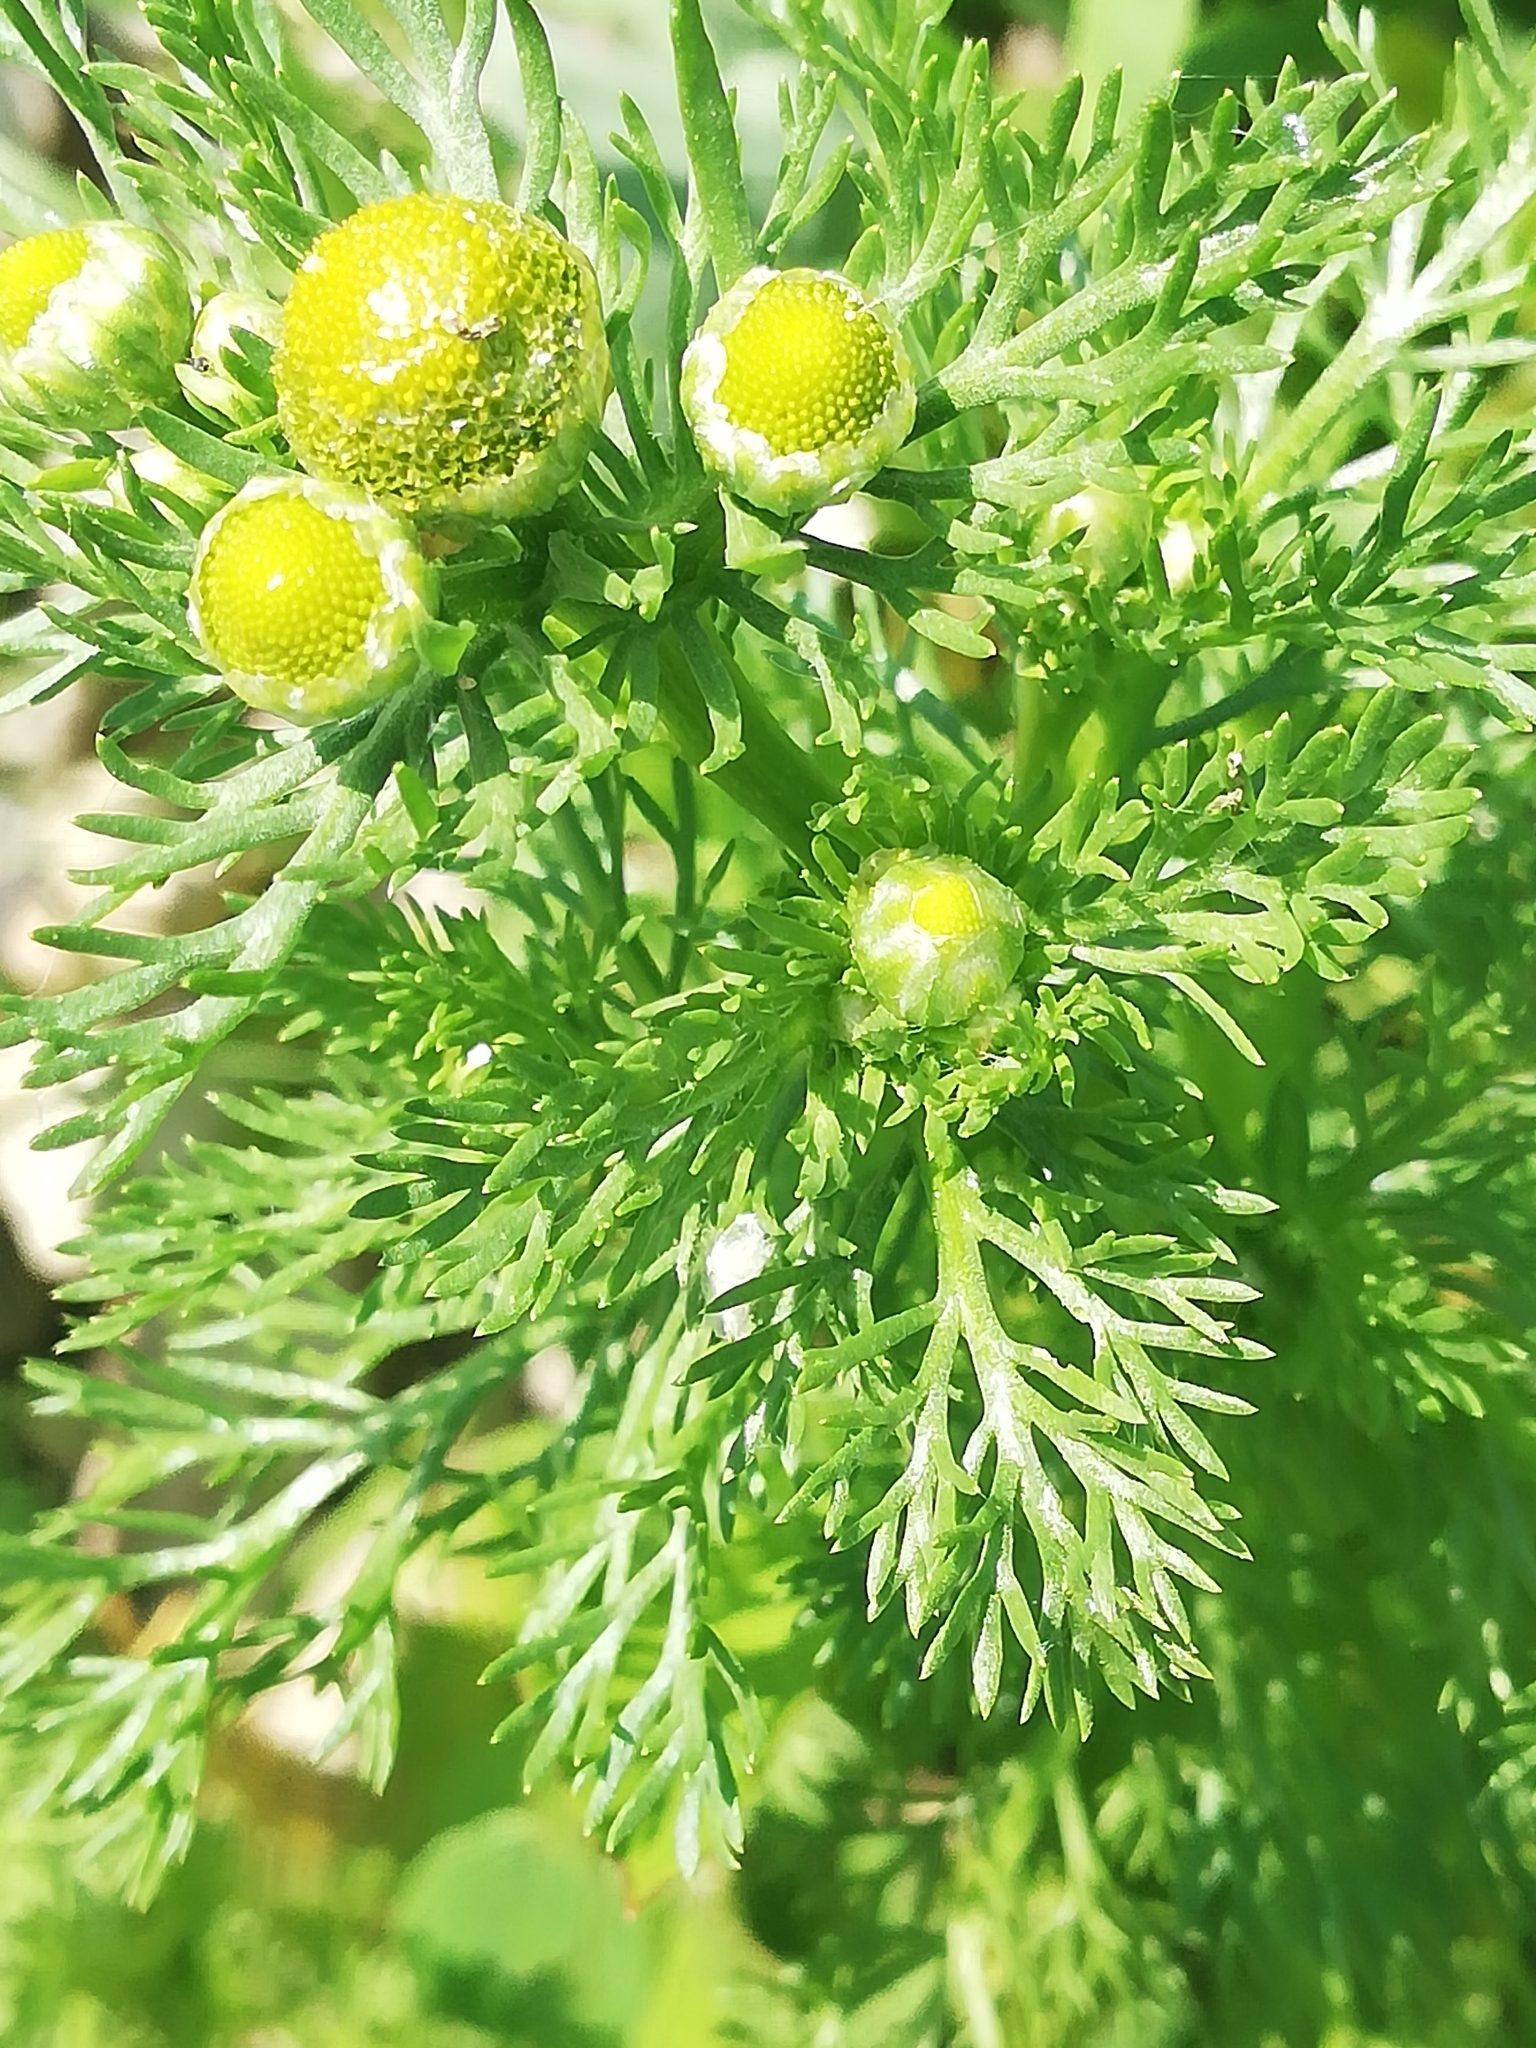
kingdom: Plantae
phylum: Tracheophyta
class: Magnoliopsida
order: Asterales
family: Asteraceae
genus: Matricaria
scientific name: Matricaria discoidea
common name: Disc mayweed
